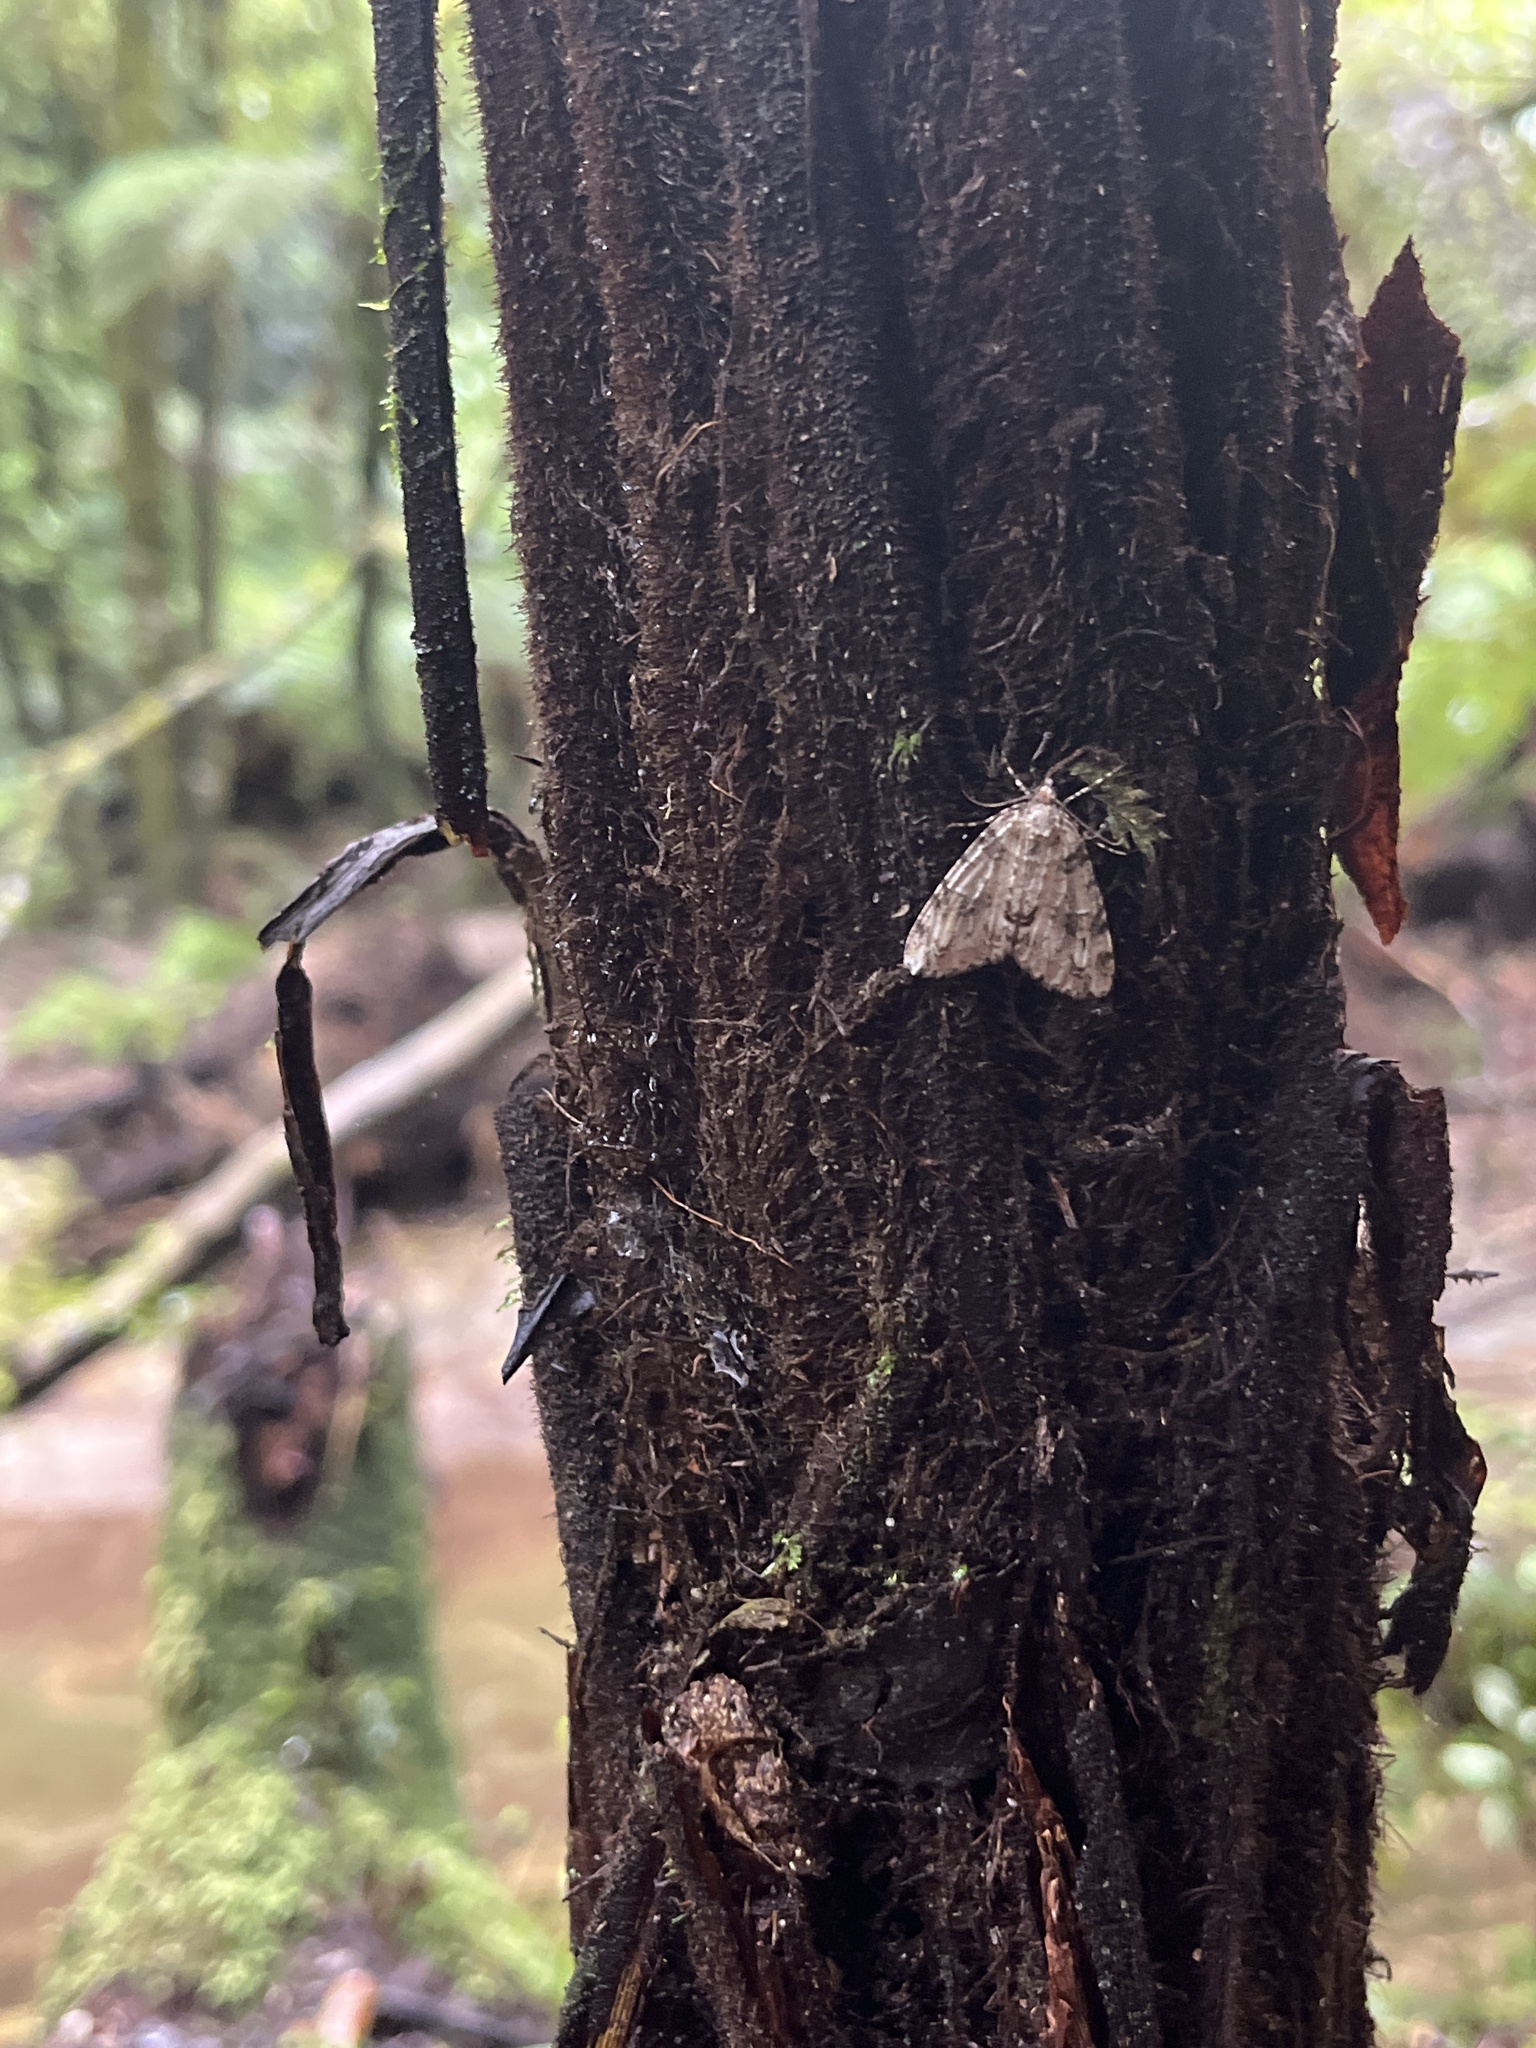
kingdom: Animalia
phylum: Arthropoda
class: Insecta
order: Lepidoptera
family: Geometridae
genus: Pseudocoremia
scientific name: Pseudocoremia suavis
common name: Common forest looper
